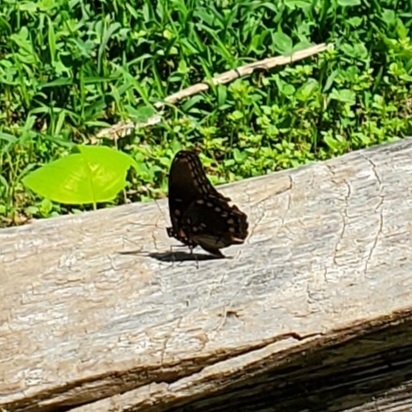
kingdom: Animalia
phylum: Arthropoda
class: Insecta
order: Lepidoptera
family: Nymphalidae
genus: Limenitis
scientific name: Limenitis astyanax
